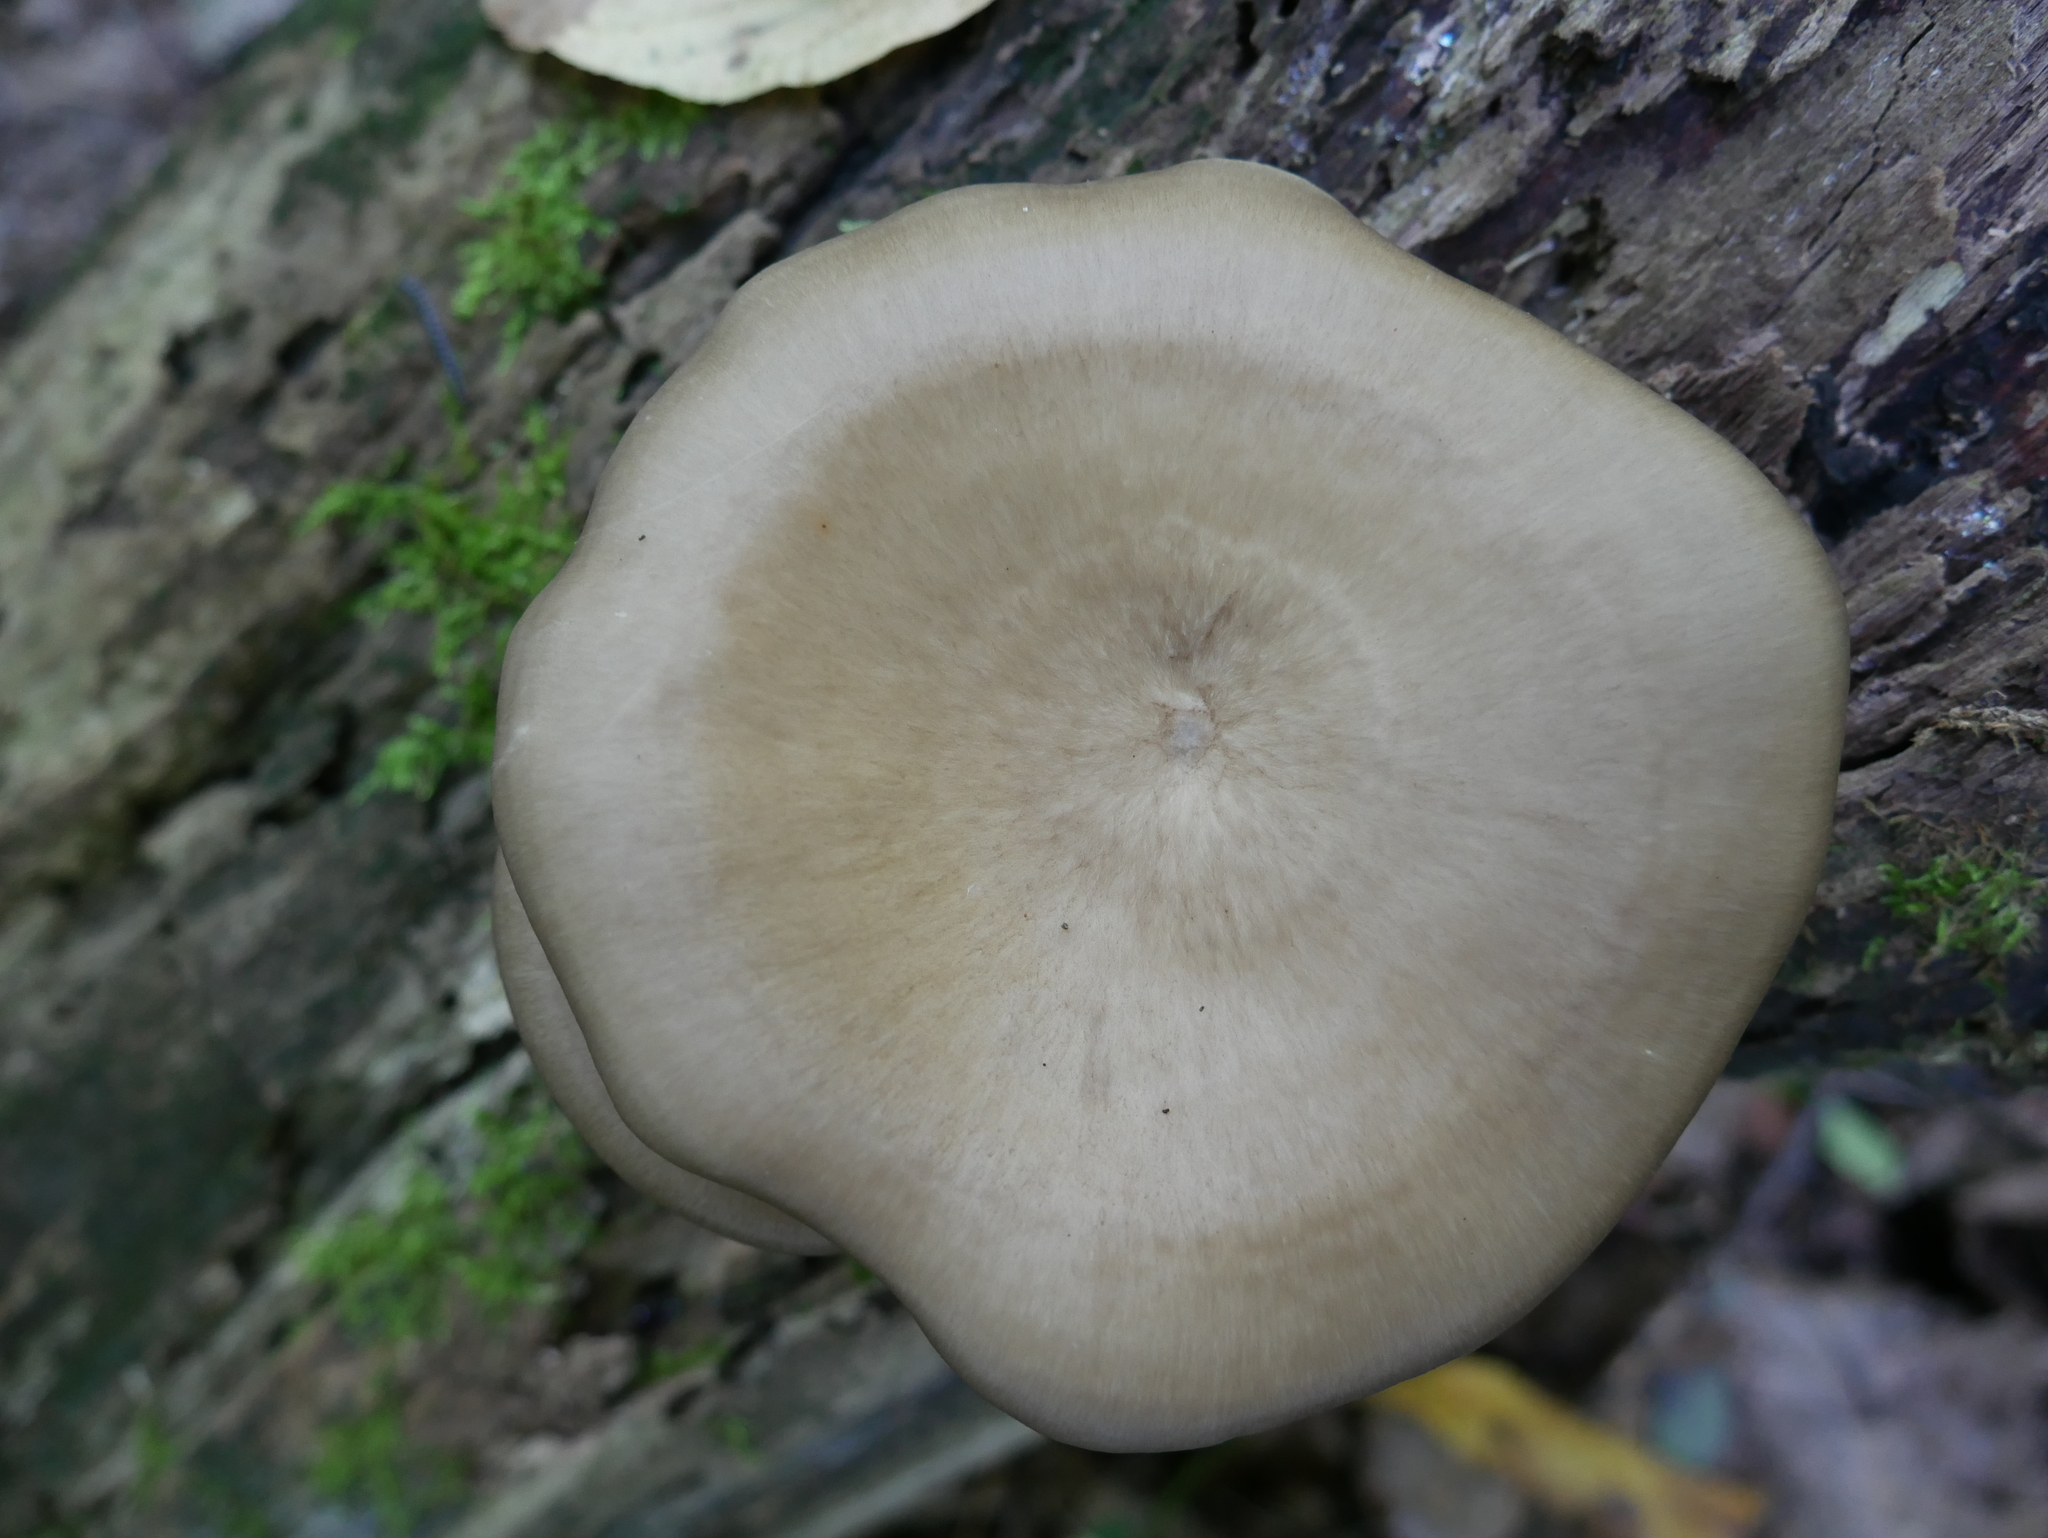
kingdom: Fungi
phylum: Basidiomycota
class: Agaricomycetes
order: Polyporales
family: Polyporaceae
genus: Picipes
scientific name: Picipes badius
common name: Bay polypore
